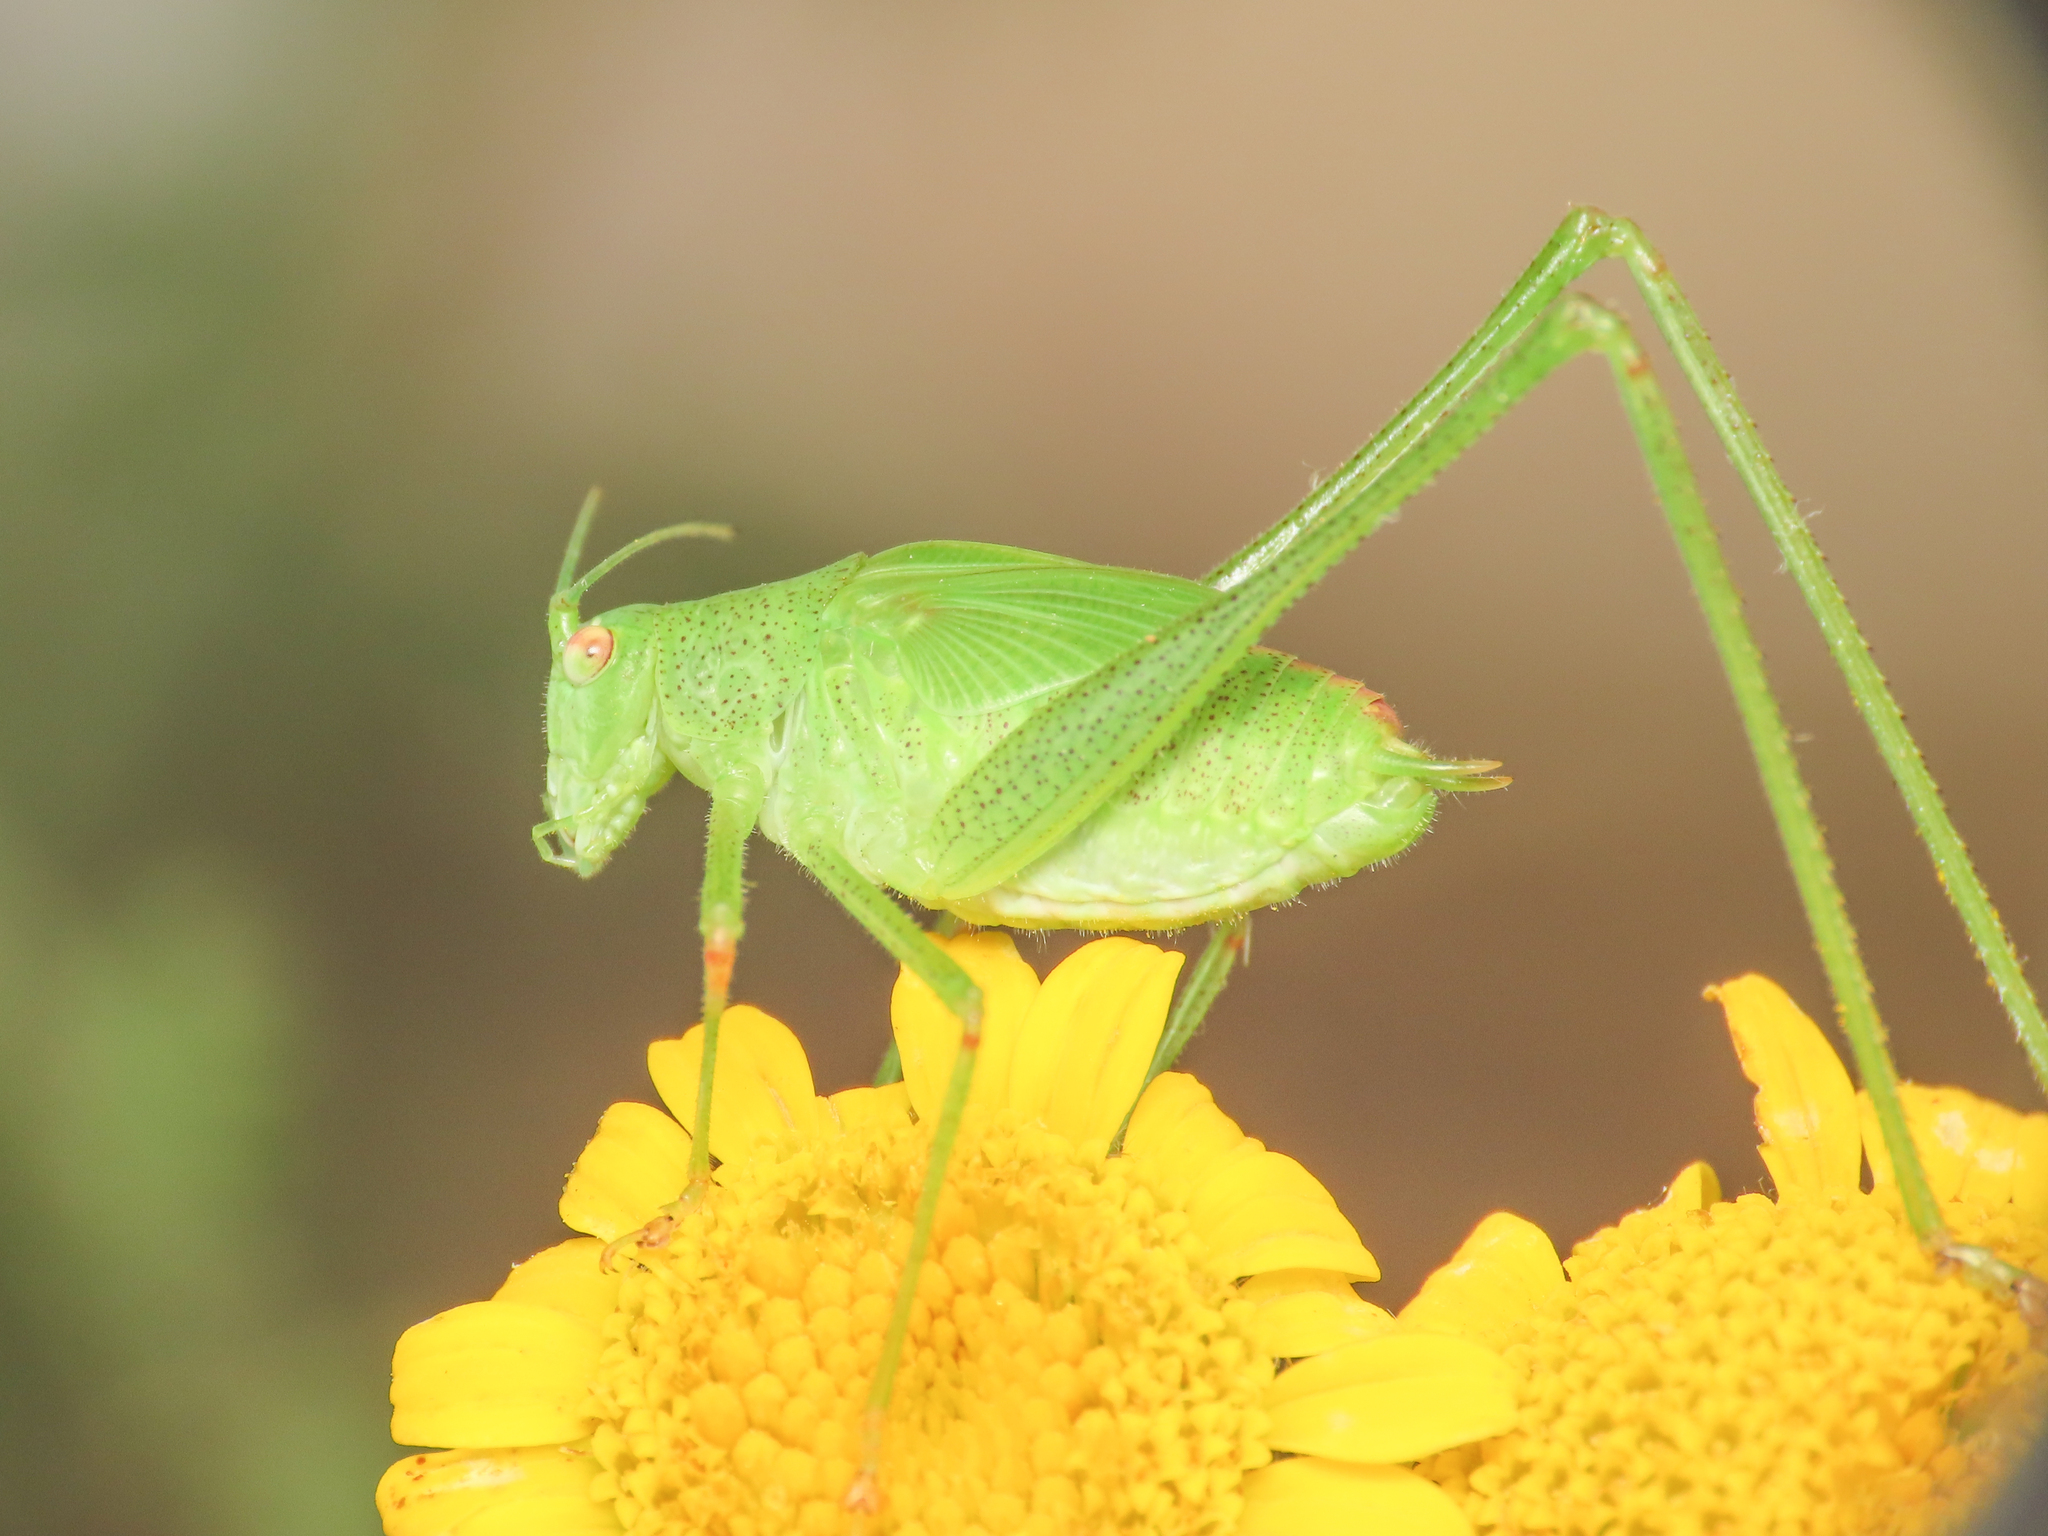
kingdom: Animalia
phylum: Arthropoda
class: Insecta
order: Orthoptera
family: Tettigoniidae
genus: Phaneroptera
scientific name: Phaneroptera nana
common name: Southern sickle bush-cricket
